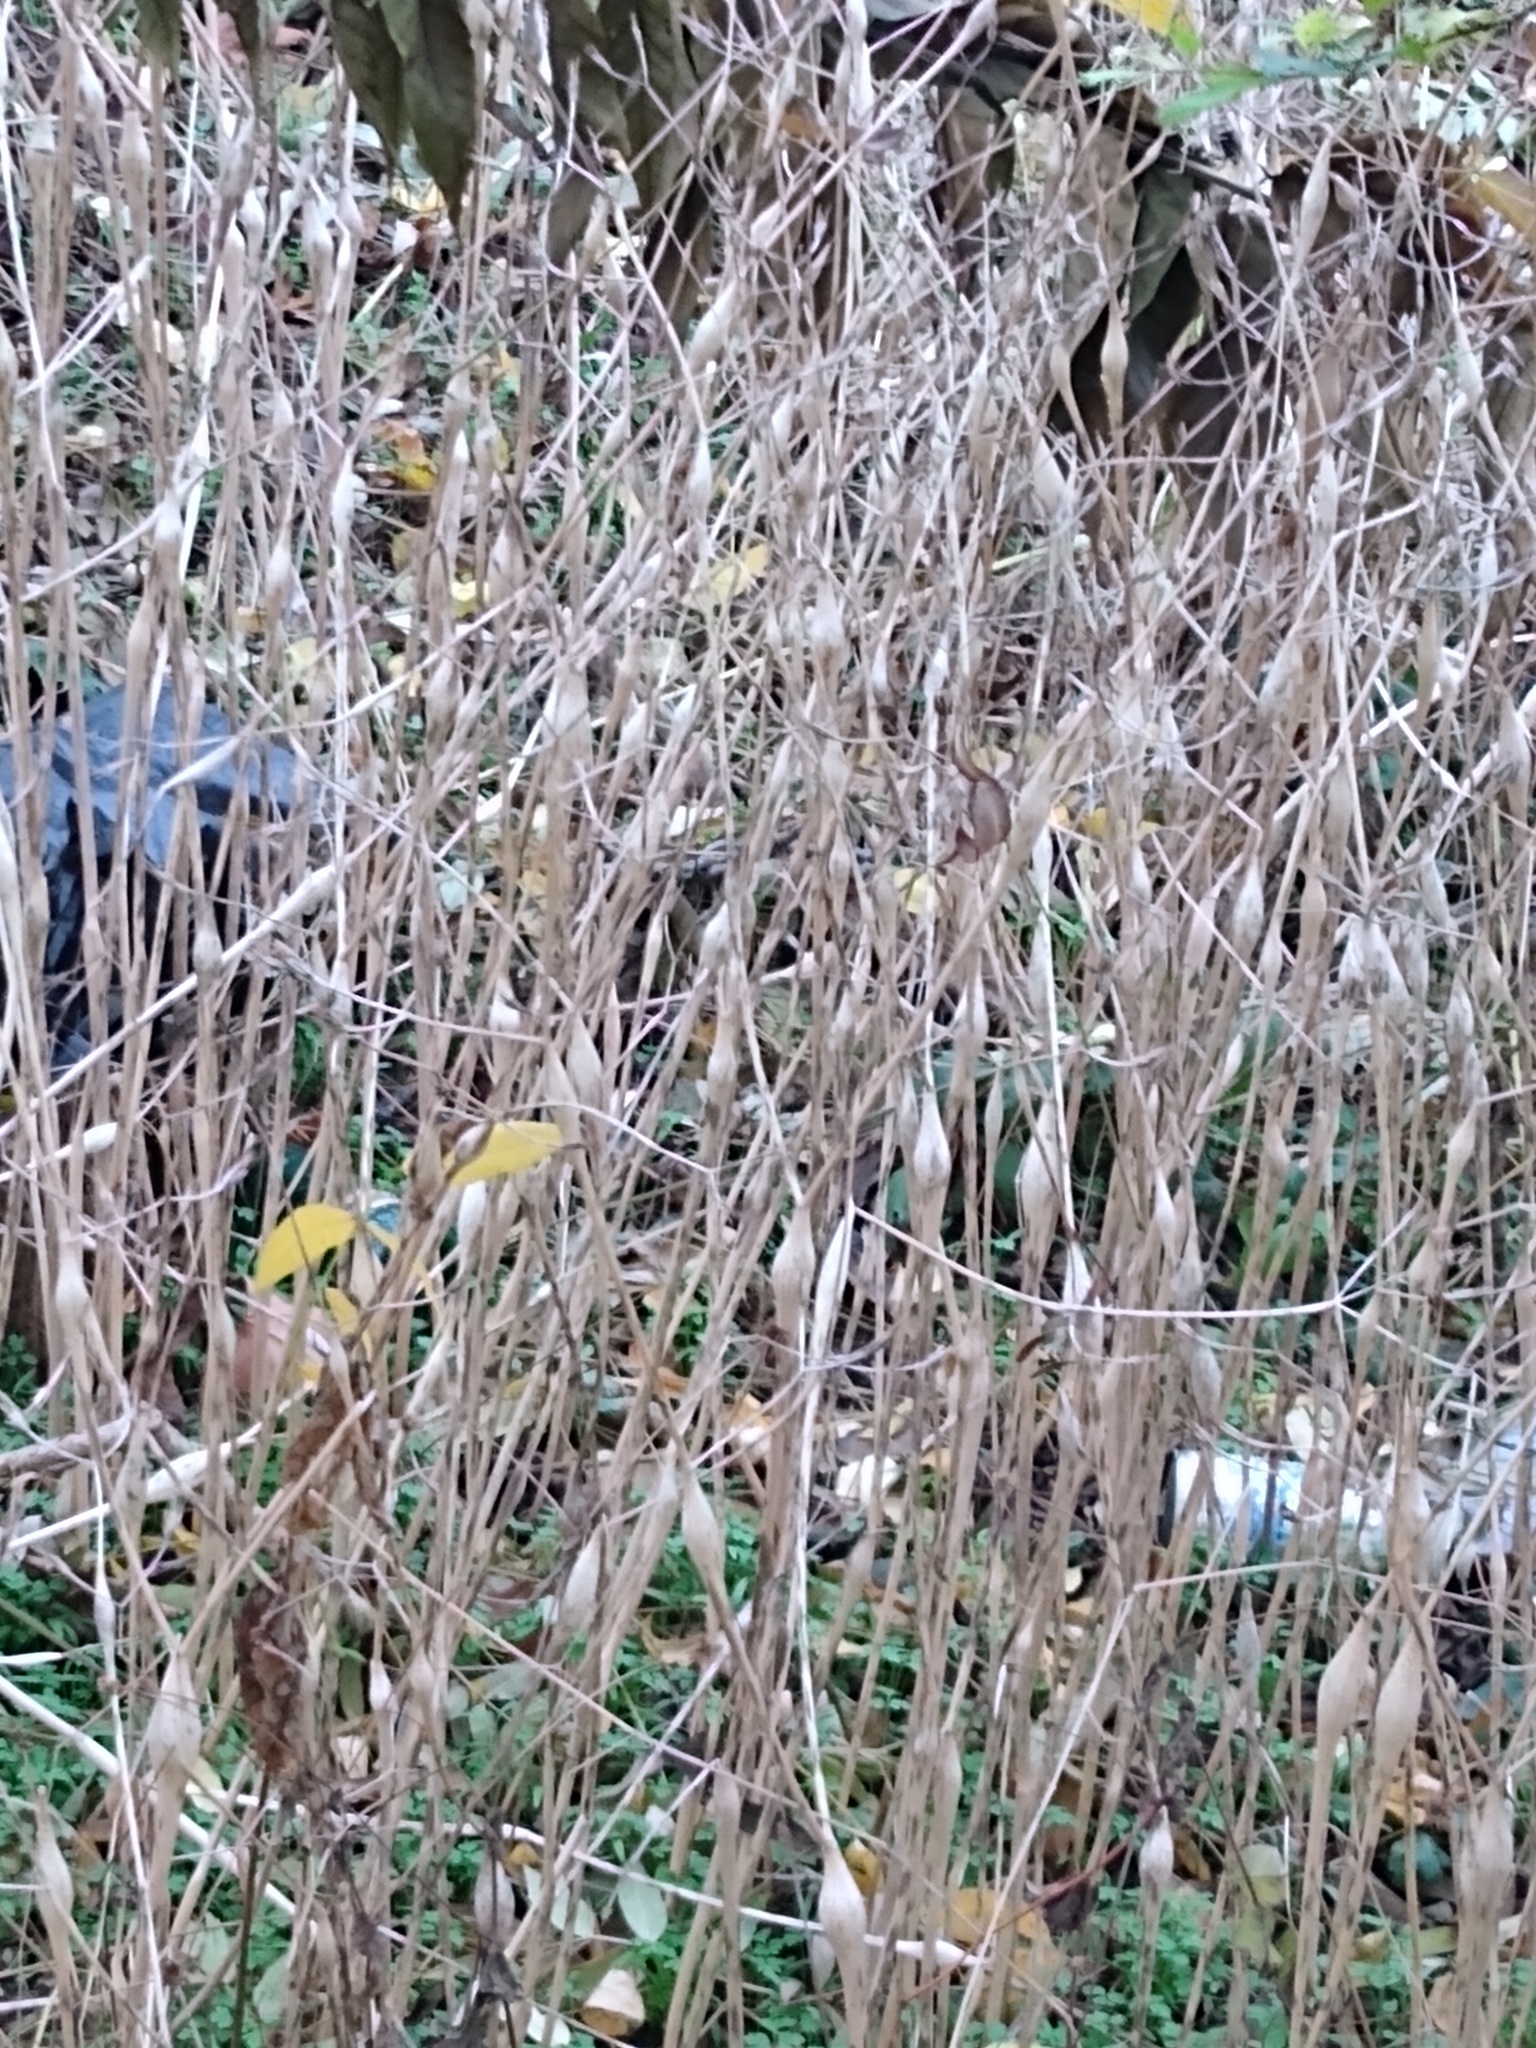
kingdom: Plantae
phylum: Tracheophyta
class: Magnoliopsida
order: Apiales
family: Apiaceae
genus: Chaerophyllum
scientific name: Chaerophyllum nodosum
